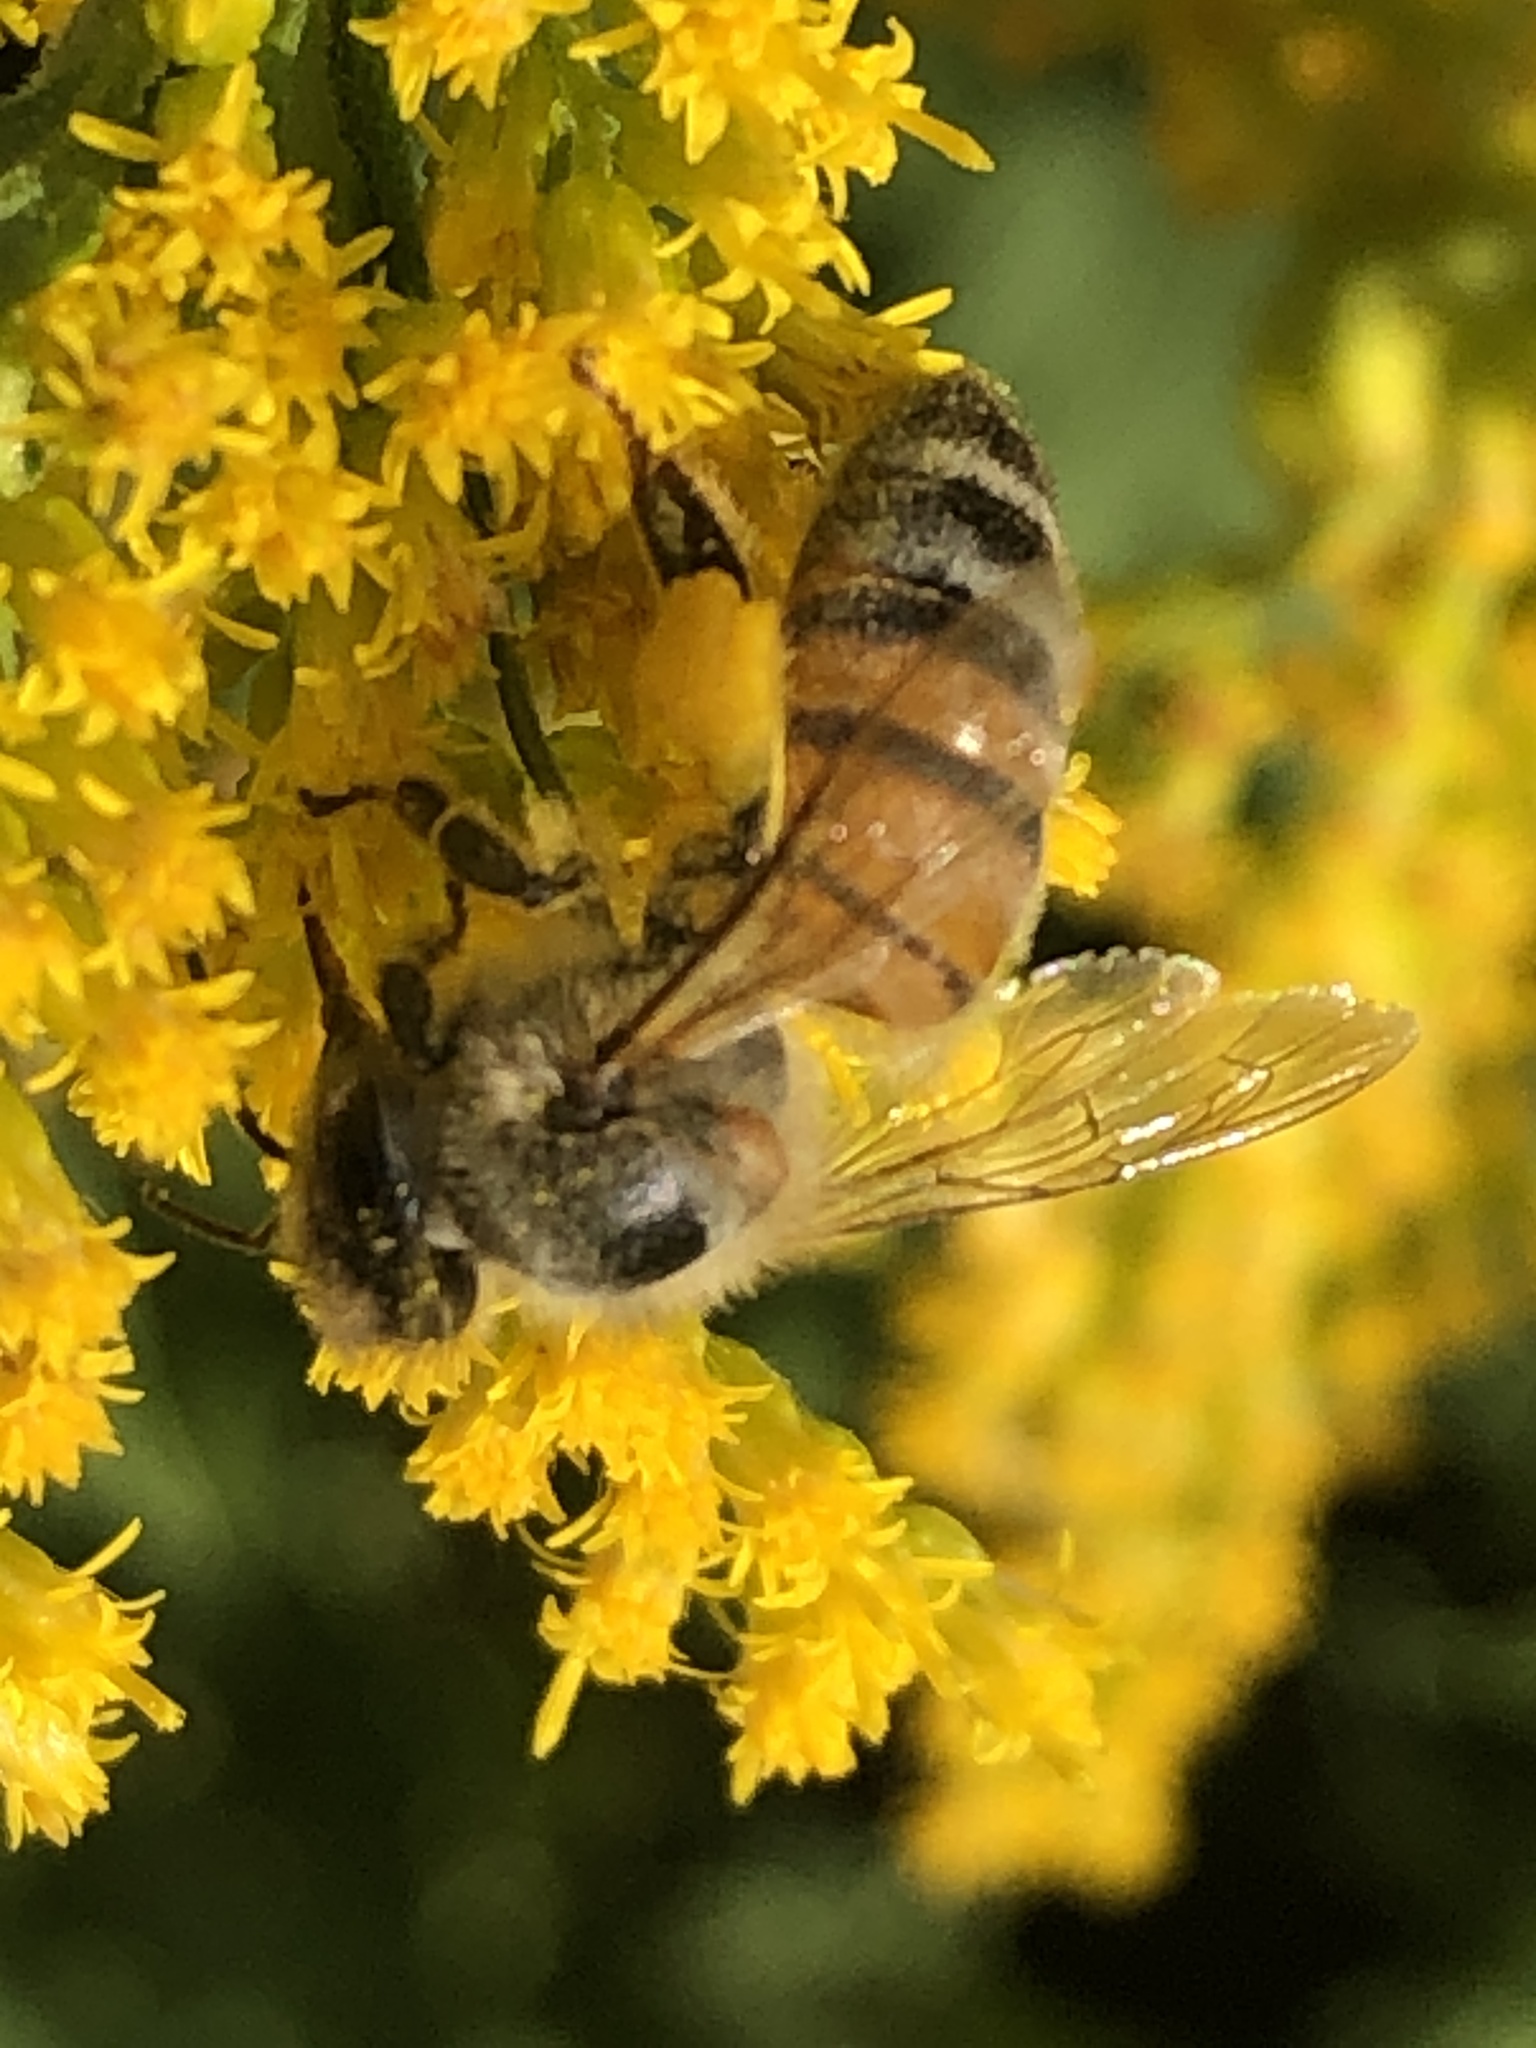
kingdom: Animalia
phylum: Arthropoda
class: Insecta
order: Hymenoptera
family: Apidae
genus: Apis
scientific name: Apis mellifera
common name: Honey bee
